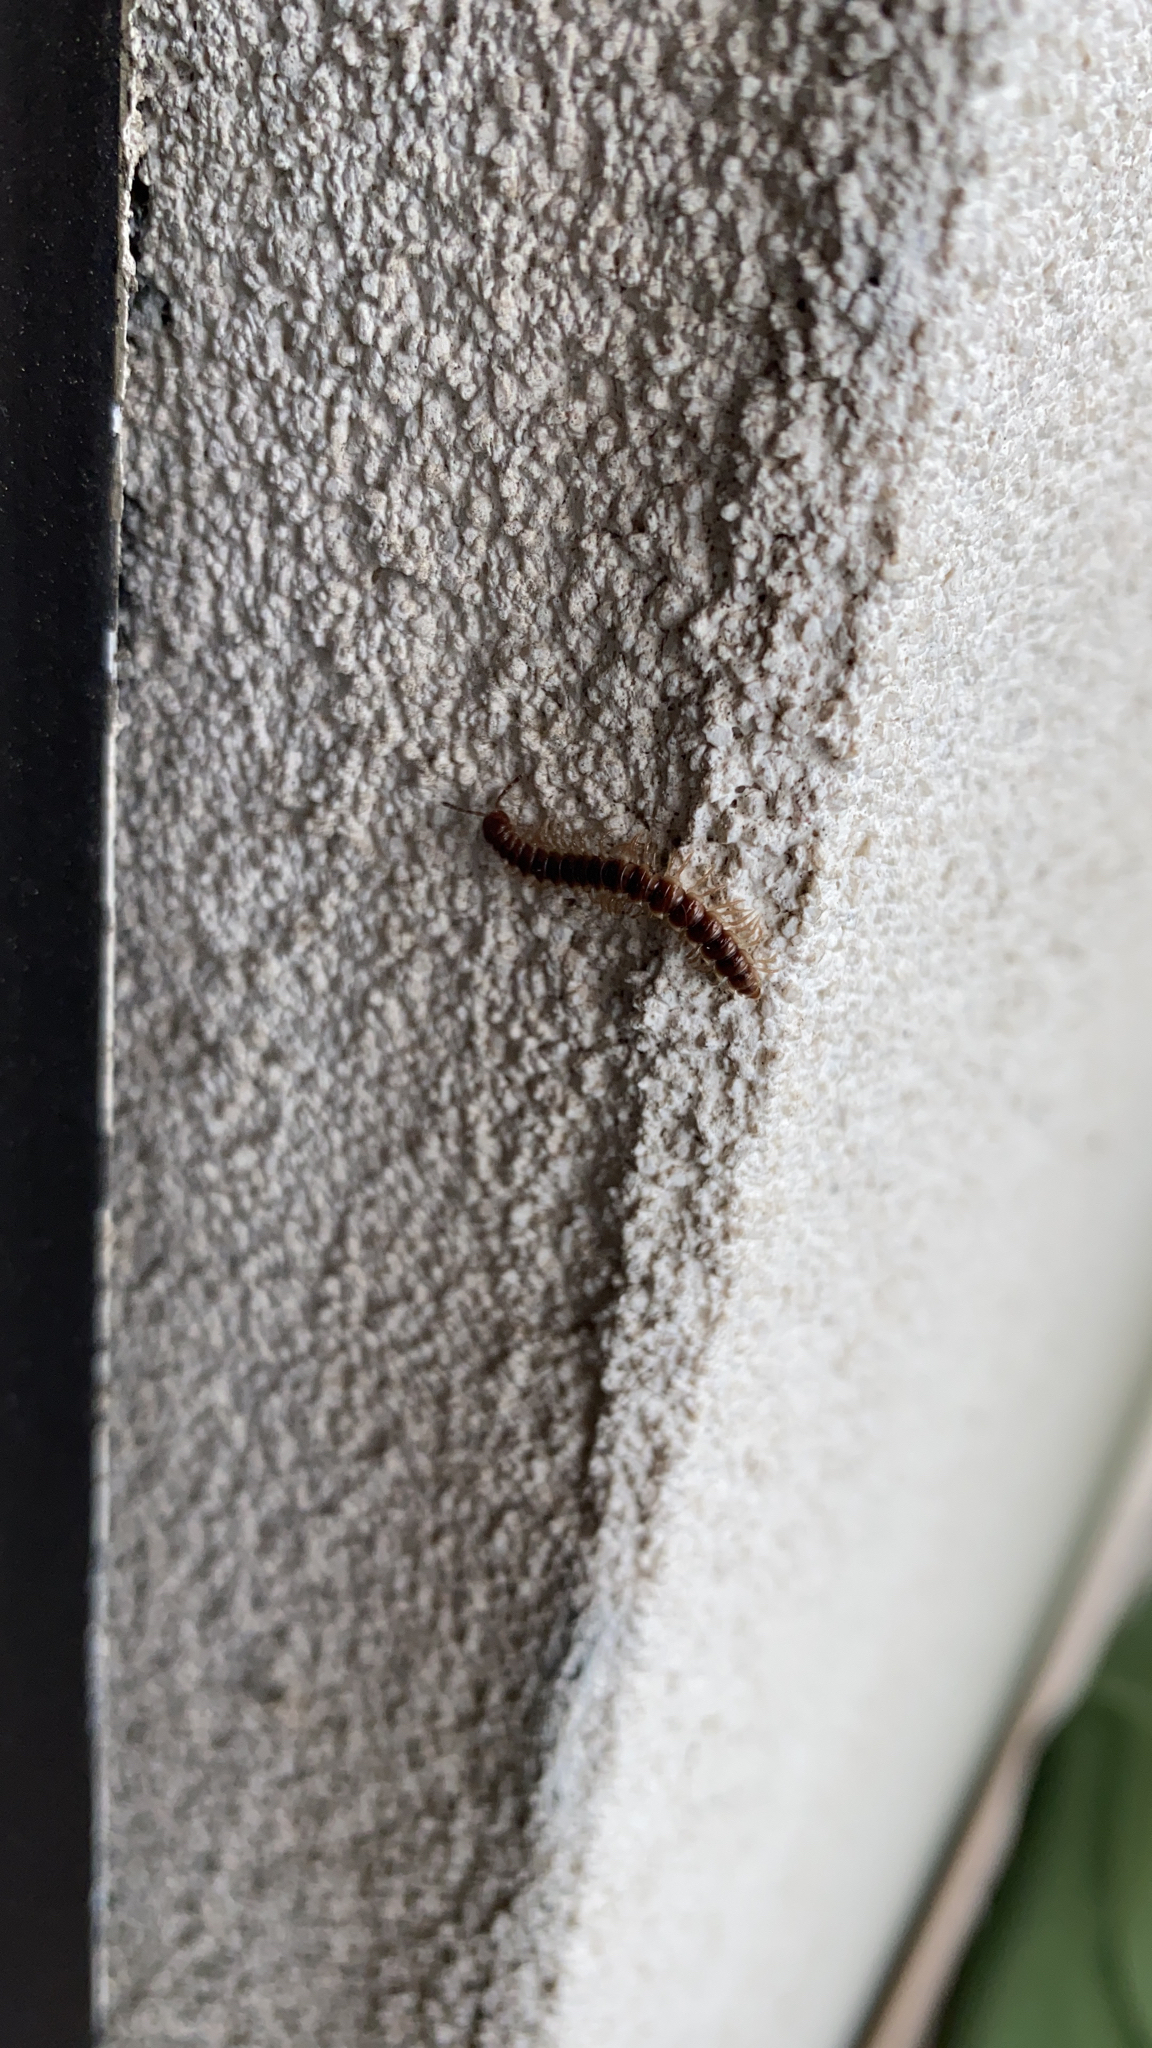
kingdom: Animalia
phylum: Arthropoda
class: Diplopoda
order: Polydesmida
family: Paradoxosomatidae
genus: Oxidus
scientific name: Oxidus gracilis
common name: Greenhouse millipede
